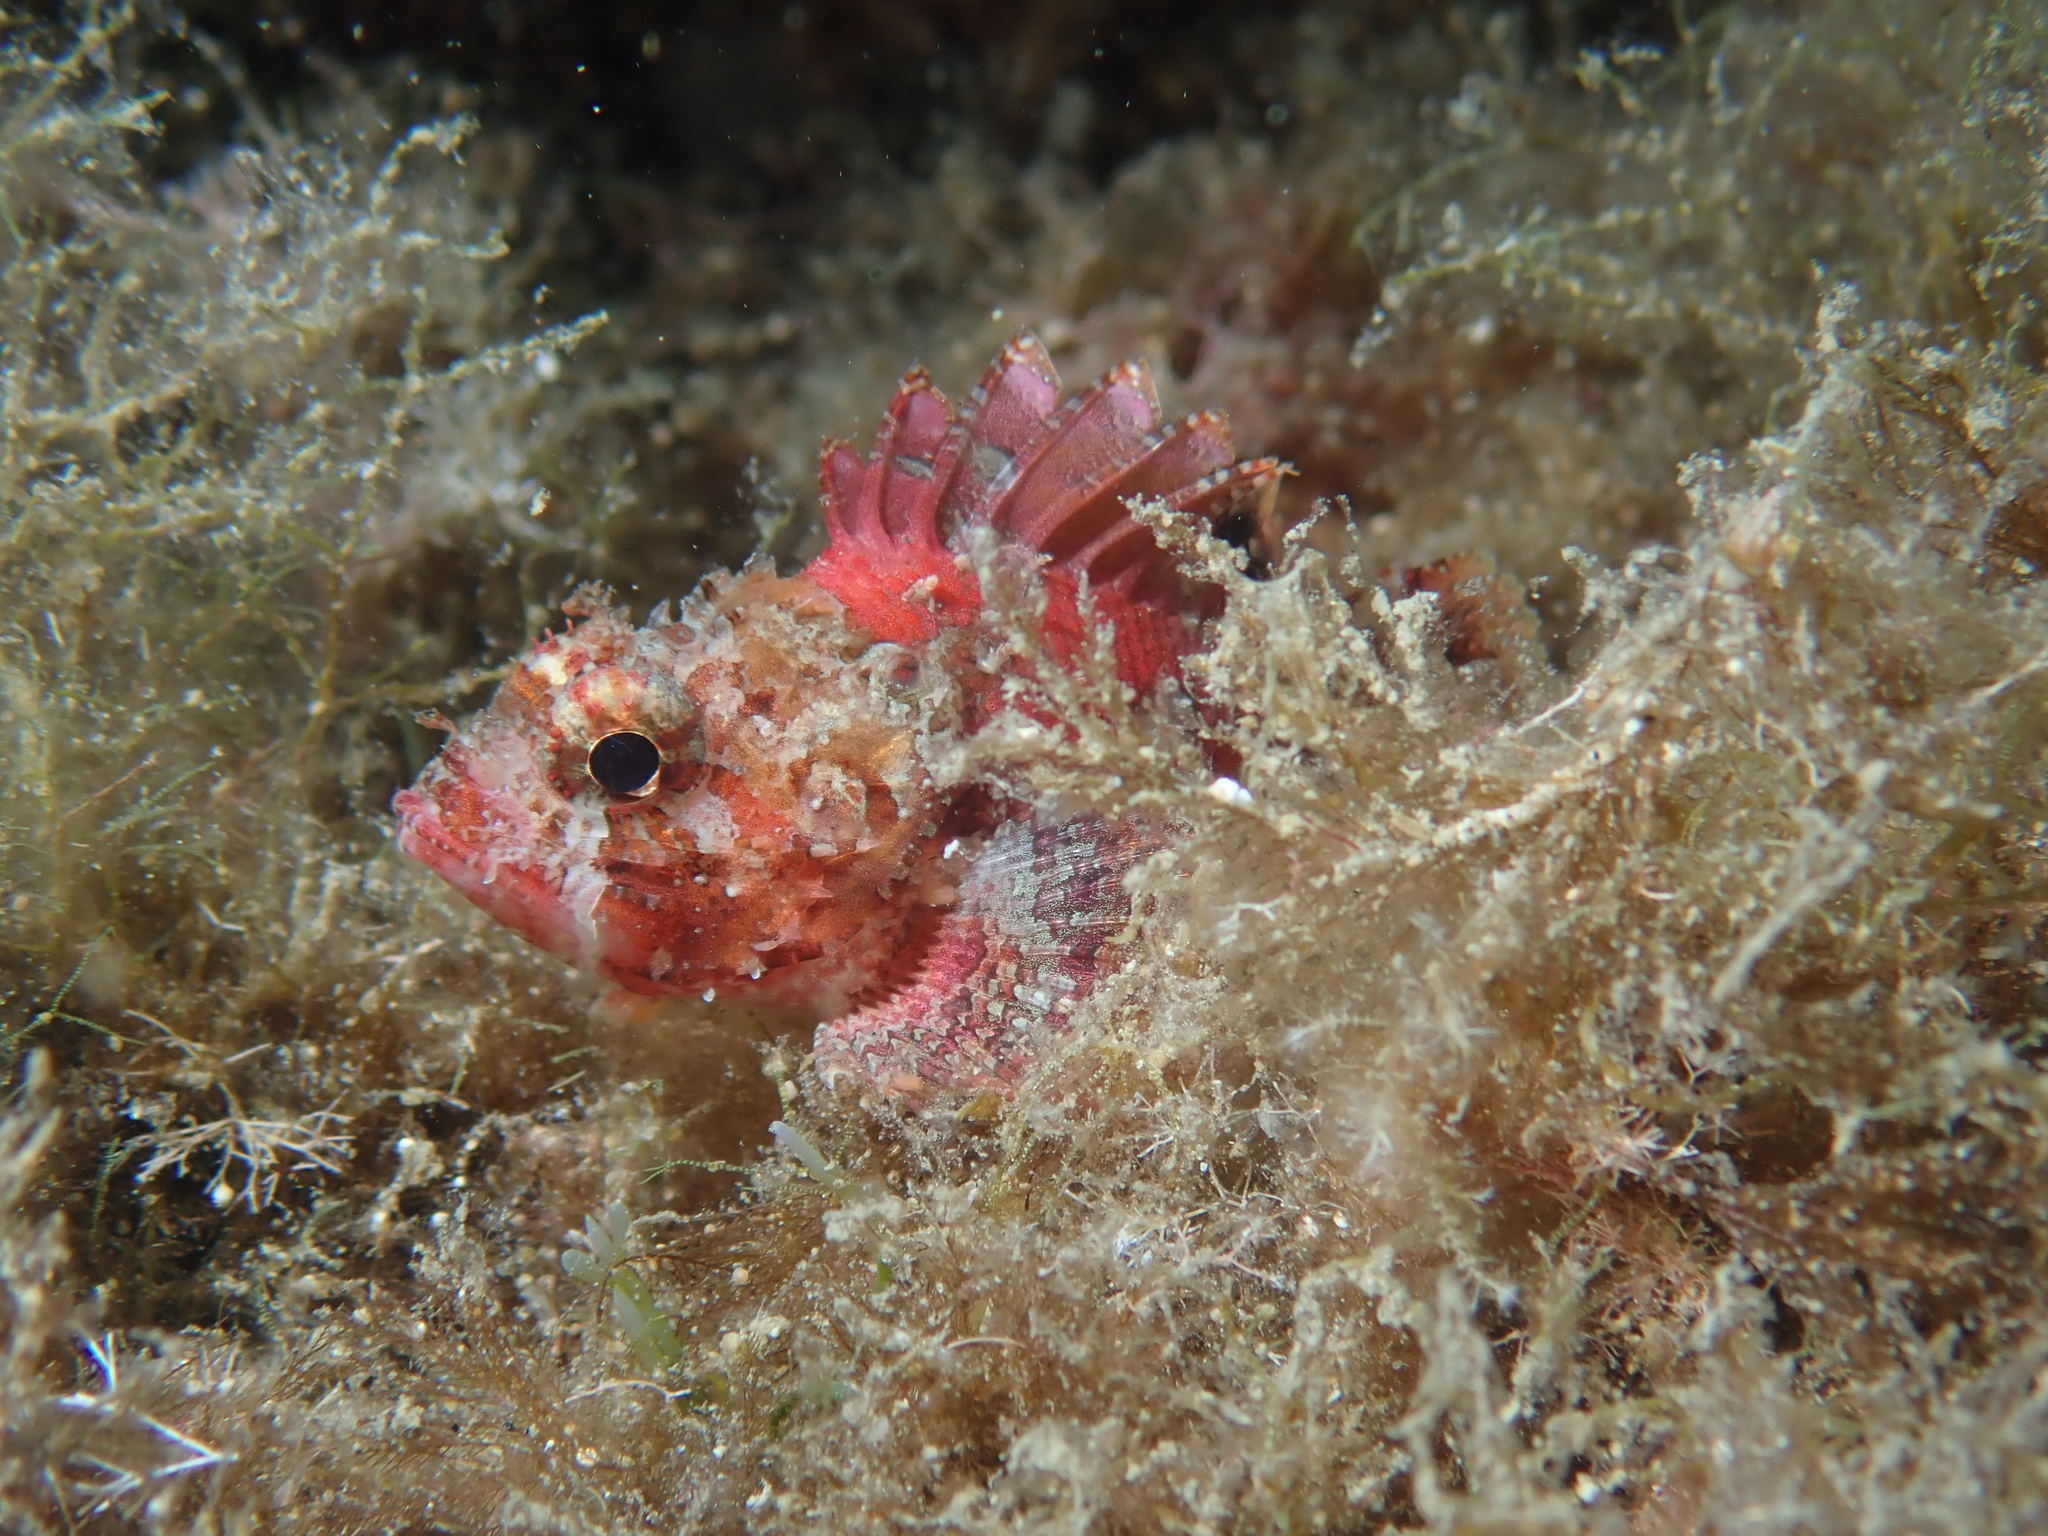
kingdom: Animalia
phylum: Chordata
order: Scorpaeniformes
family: Scorpaenidae
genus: Scorpaena
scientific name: Scorpaena notata
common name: Small red scorpionfish
